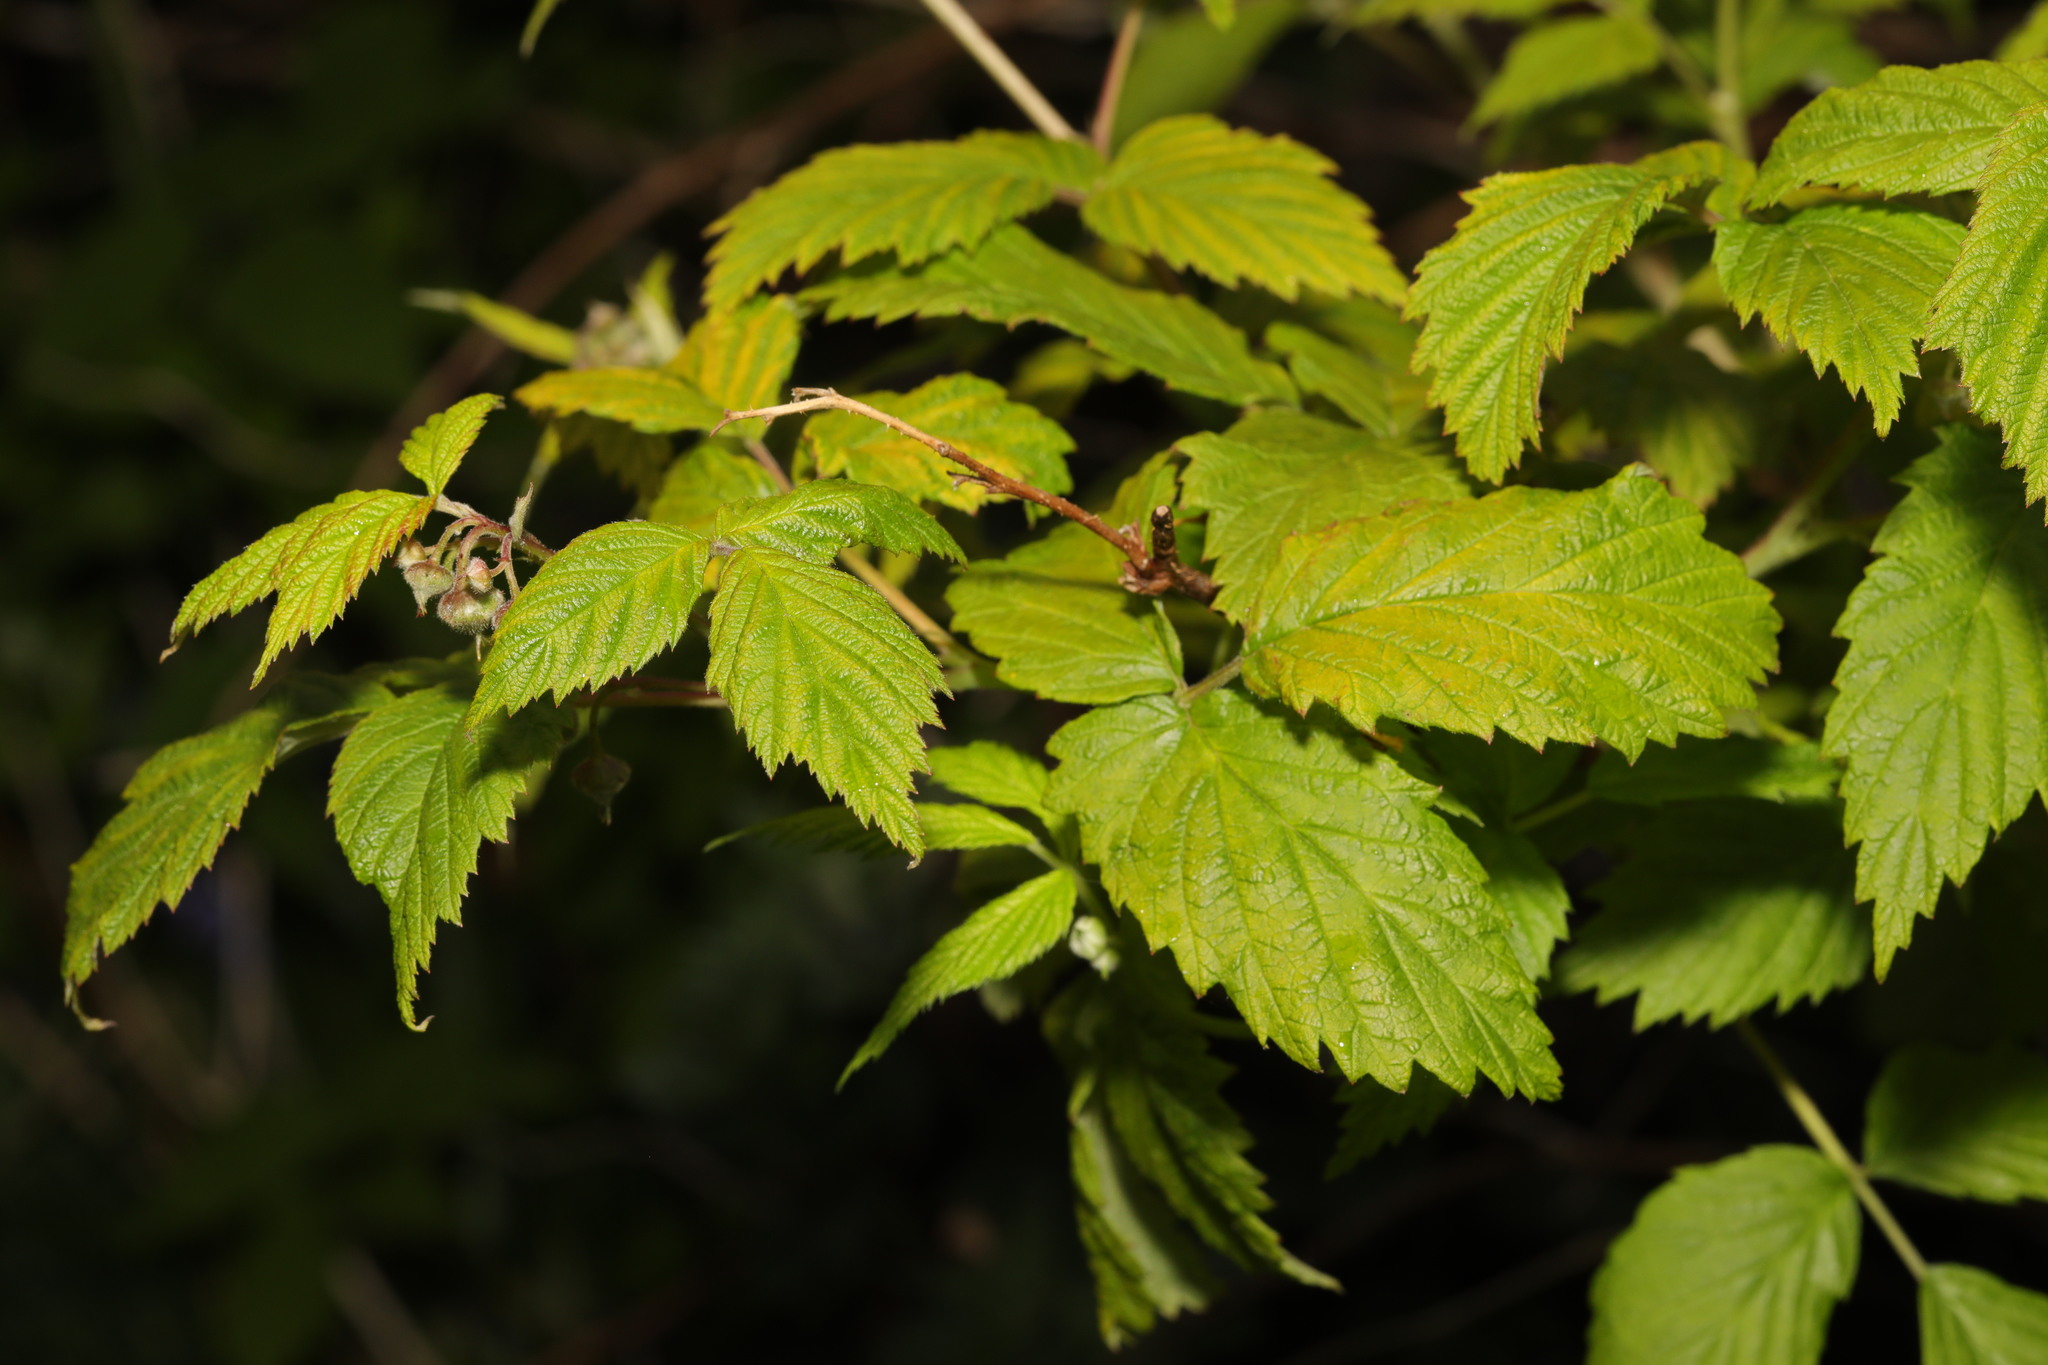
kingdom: Plantae
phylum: Tracheophyta
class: Magnoliopsida
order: Rosales
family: Rosaceae
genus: Rubus
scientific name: Rubus idaeus
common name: Raspberry
